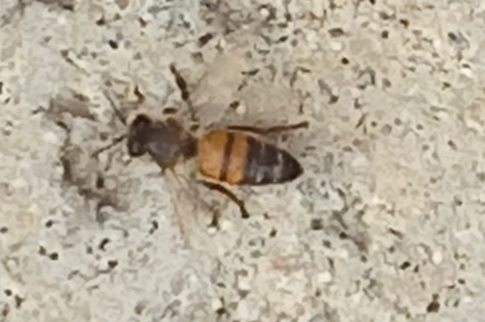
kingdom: Animalia
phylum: Arthropoda
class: Insecta
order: Hymenoptera
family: Apidae
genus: Apis
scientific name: Apis mellifera
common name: Honey bee
